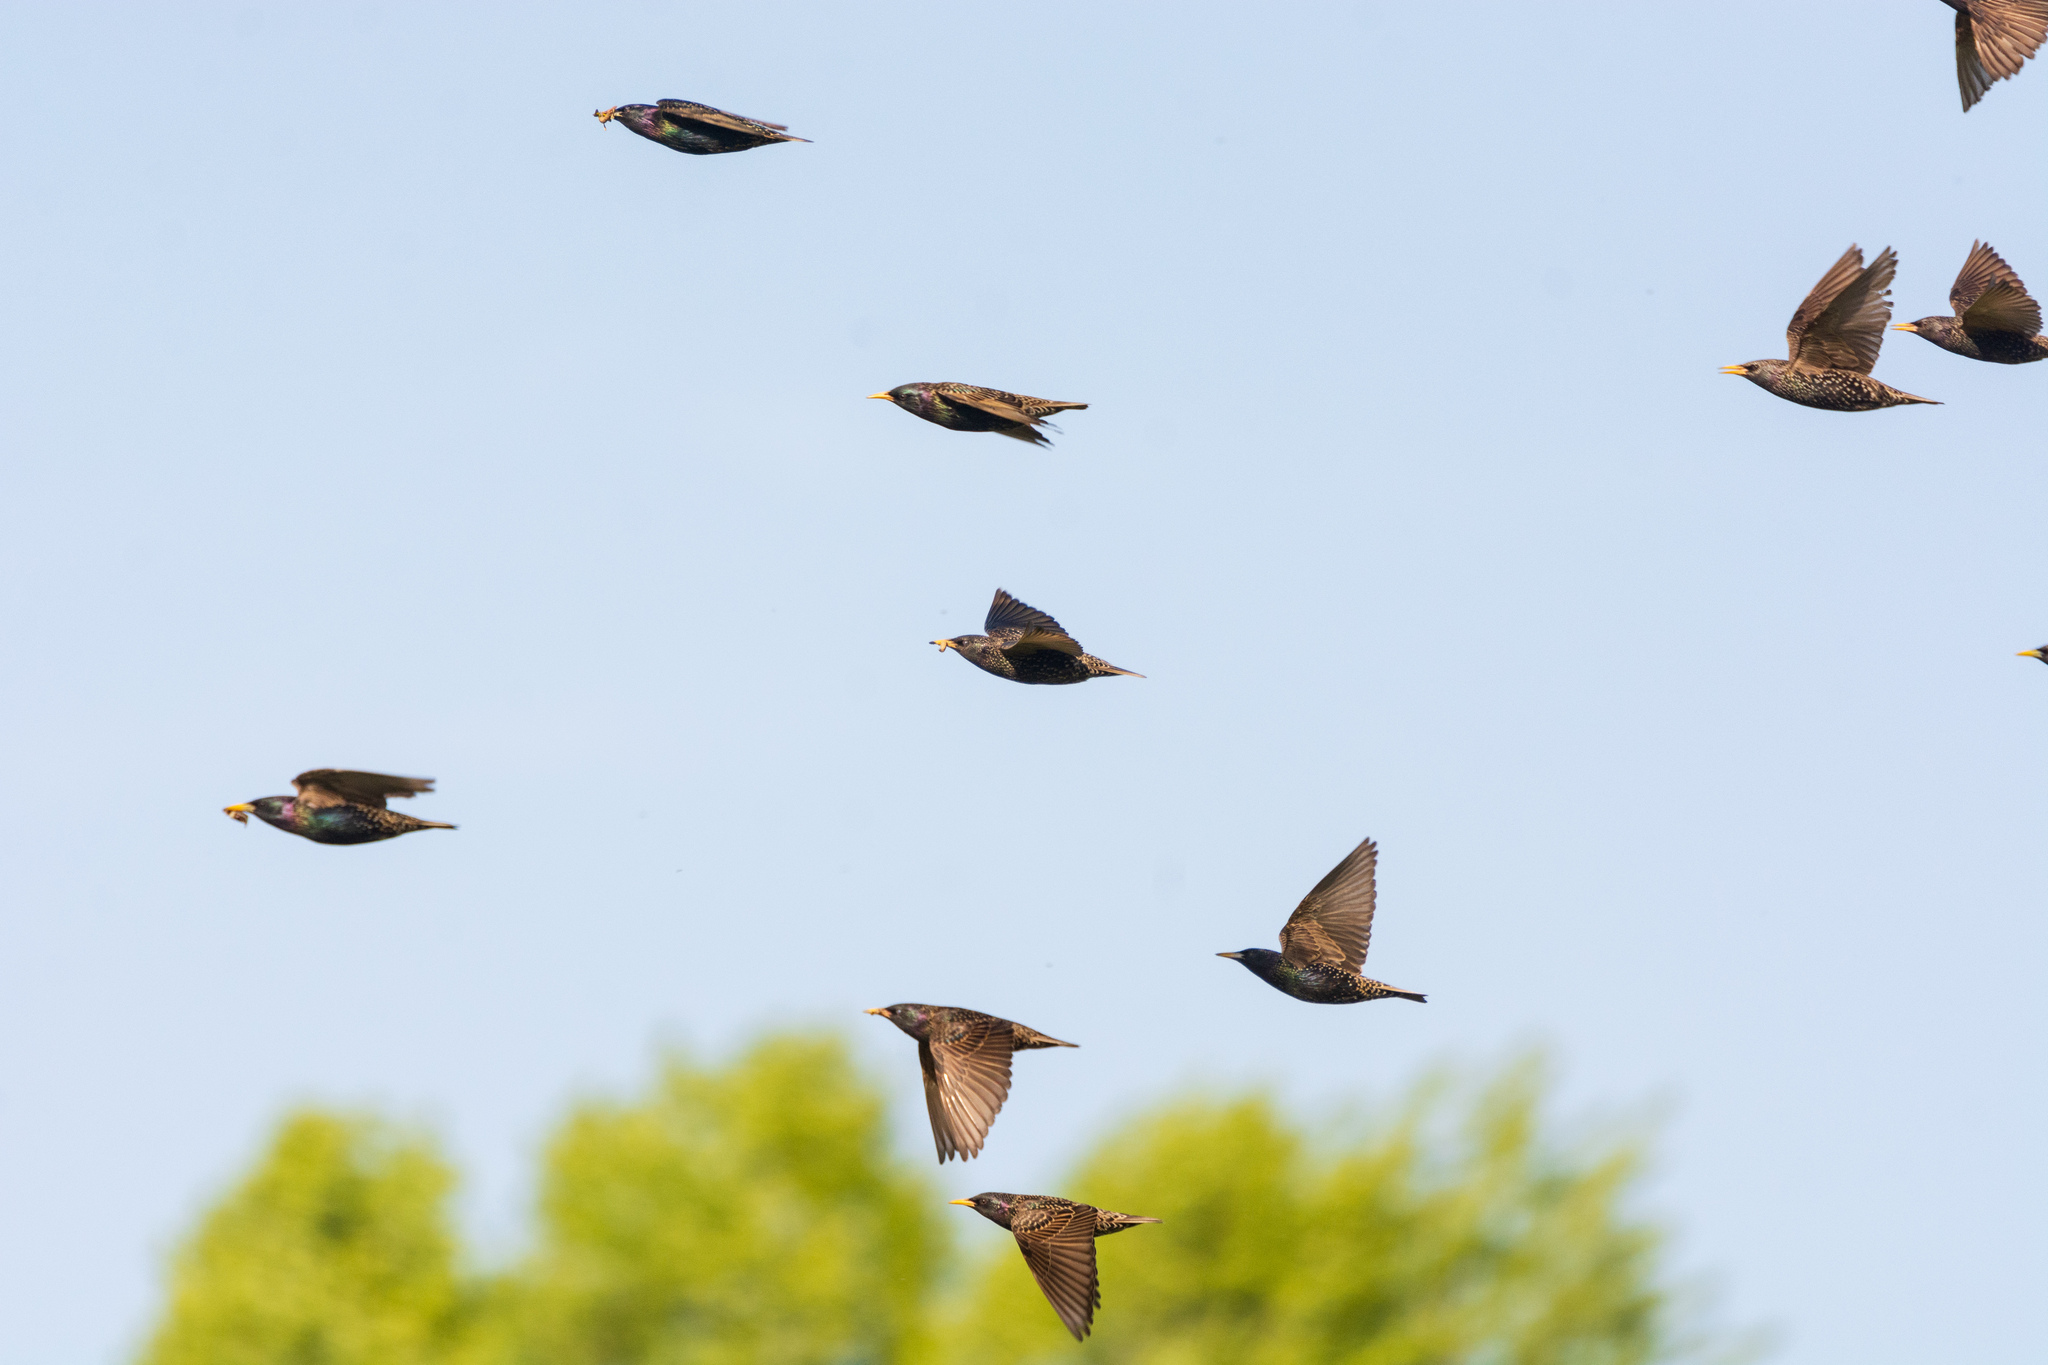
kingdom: Animalia
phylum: Chordata
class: Aves
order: Passeriformes
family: Sturnidae
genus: Sturnus
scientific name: Sturnus vulgaris
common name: Common starling
